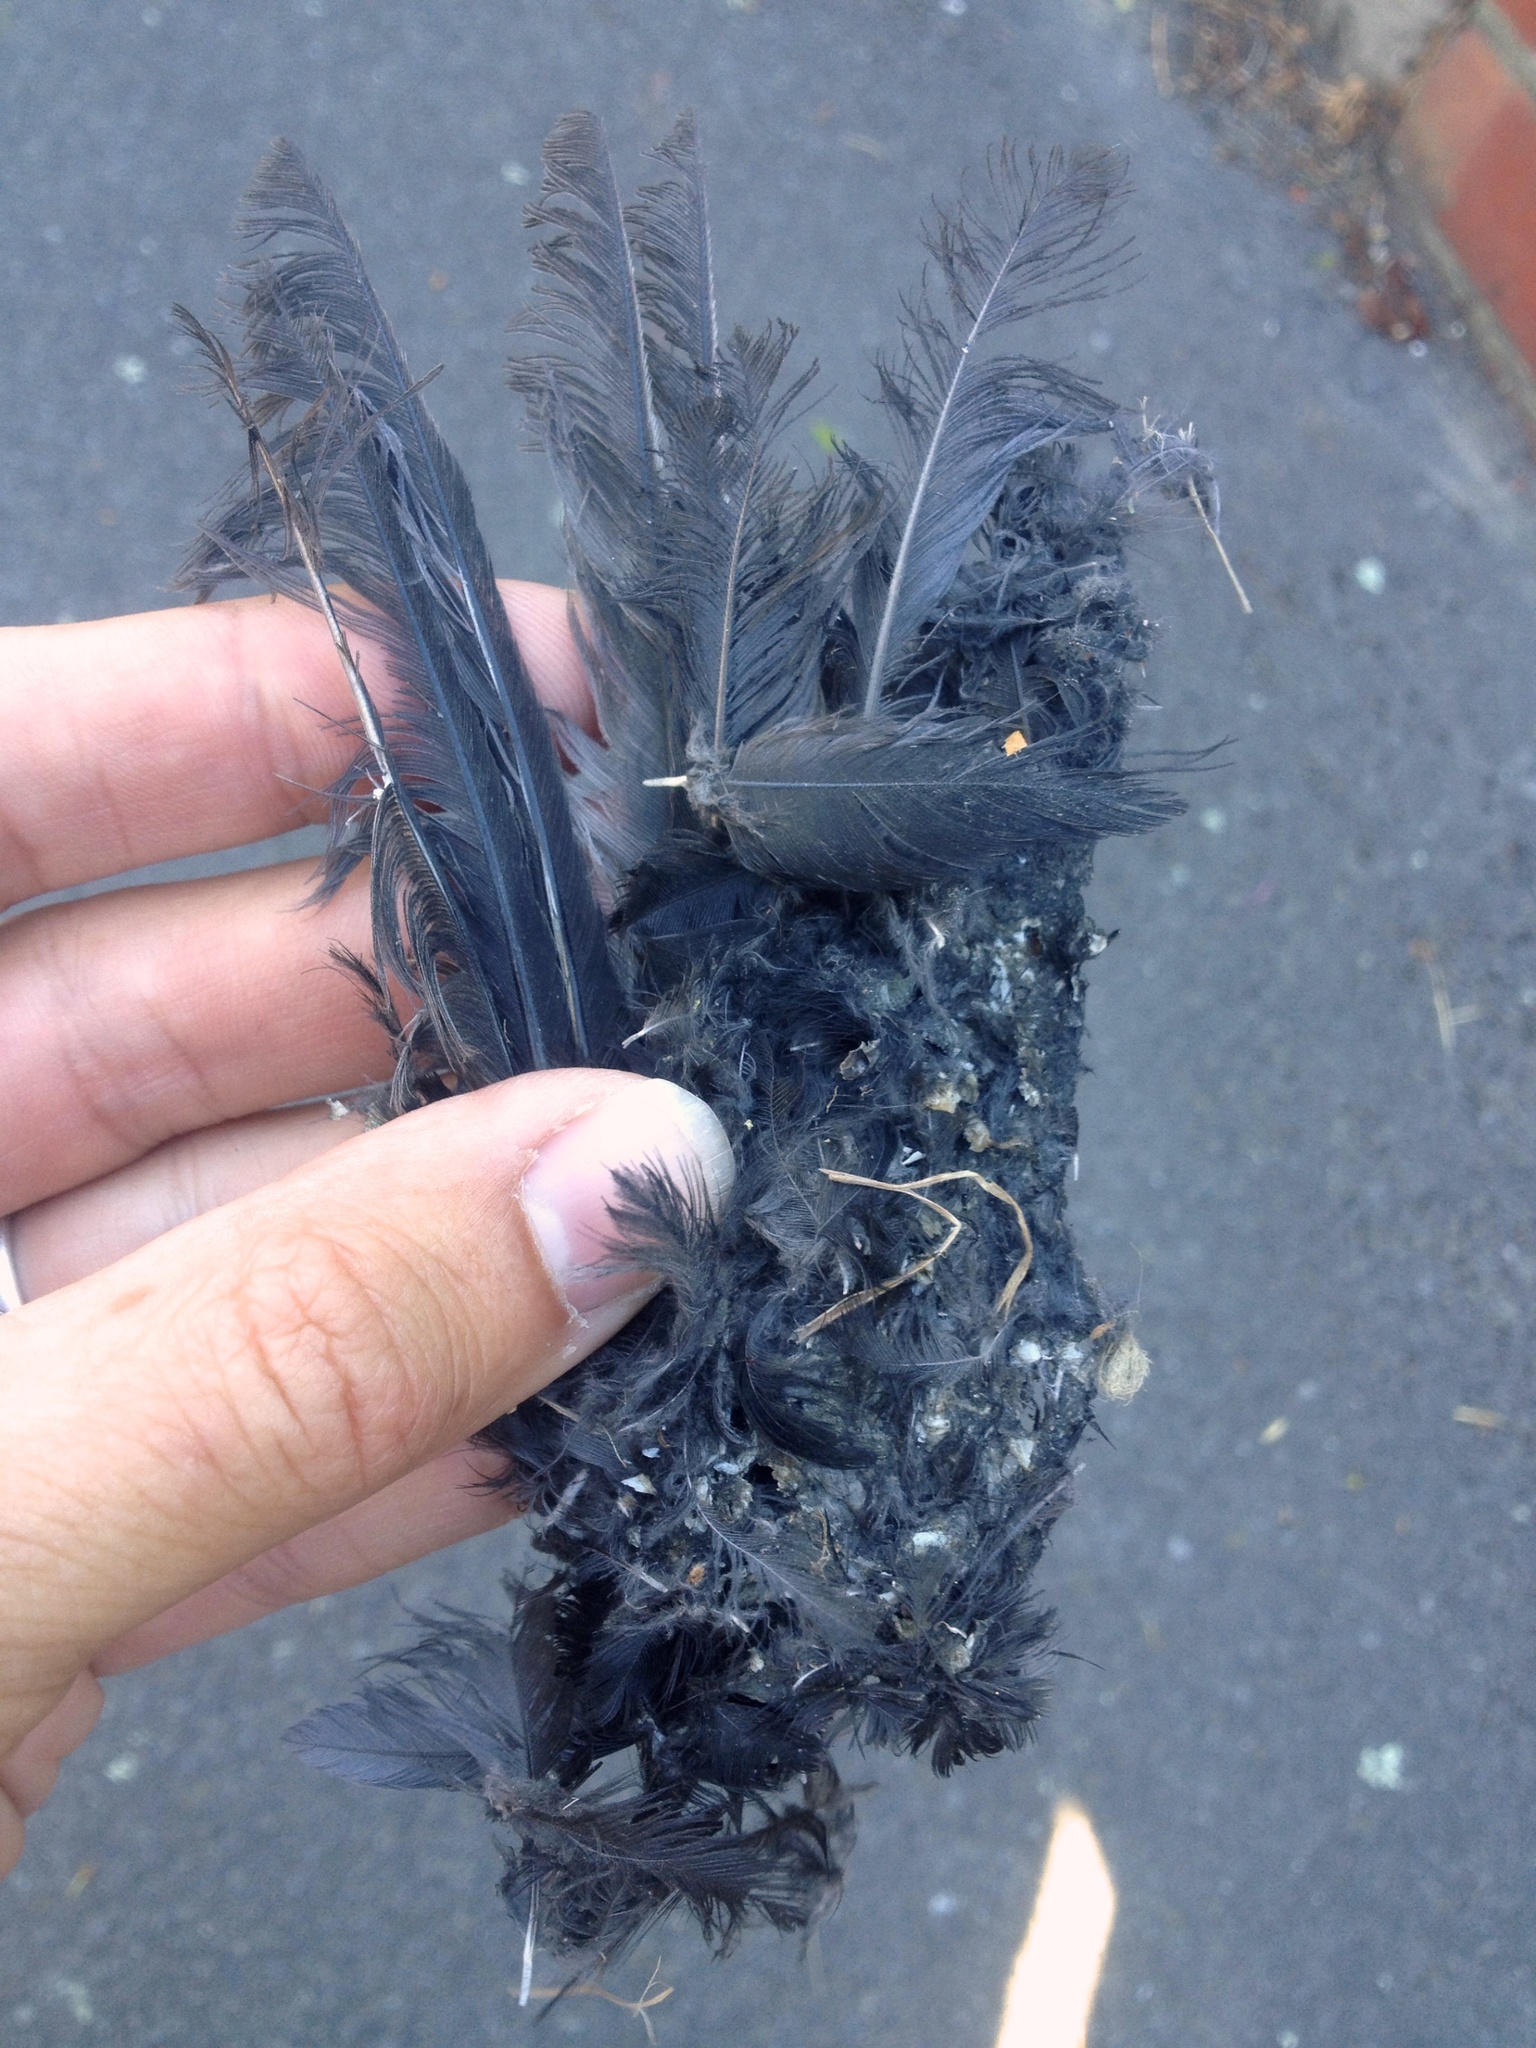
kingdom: Animalia
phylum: Chordata
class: Aves
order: Passeriformes
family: Turdidae
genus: Turdus
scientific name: Turdus merula
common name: Common blackbird
